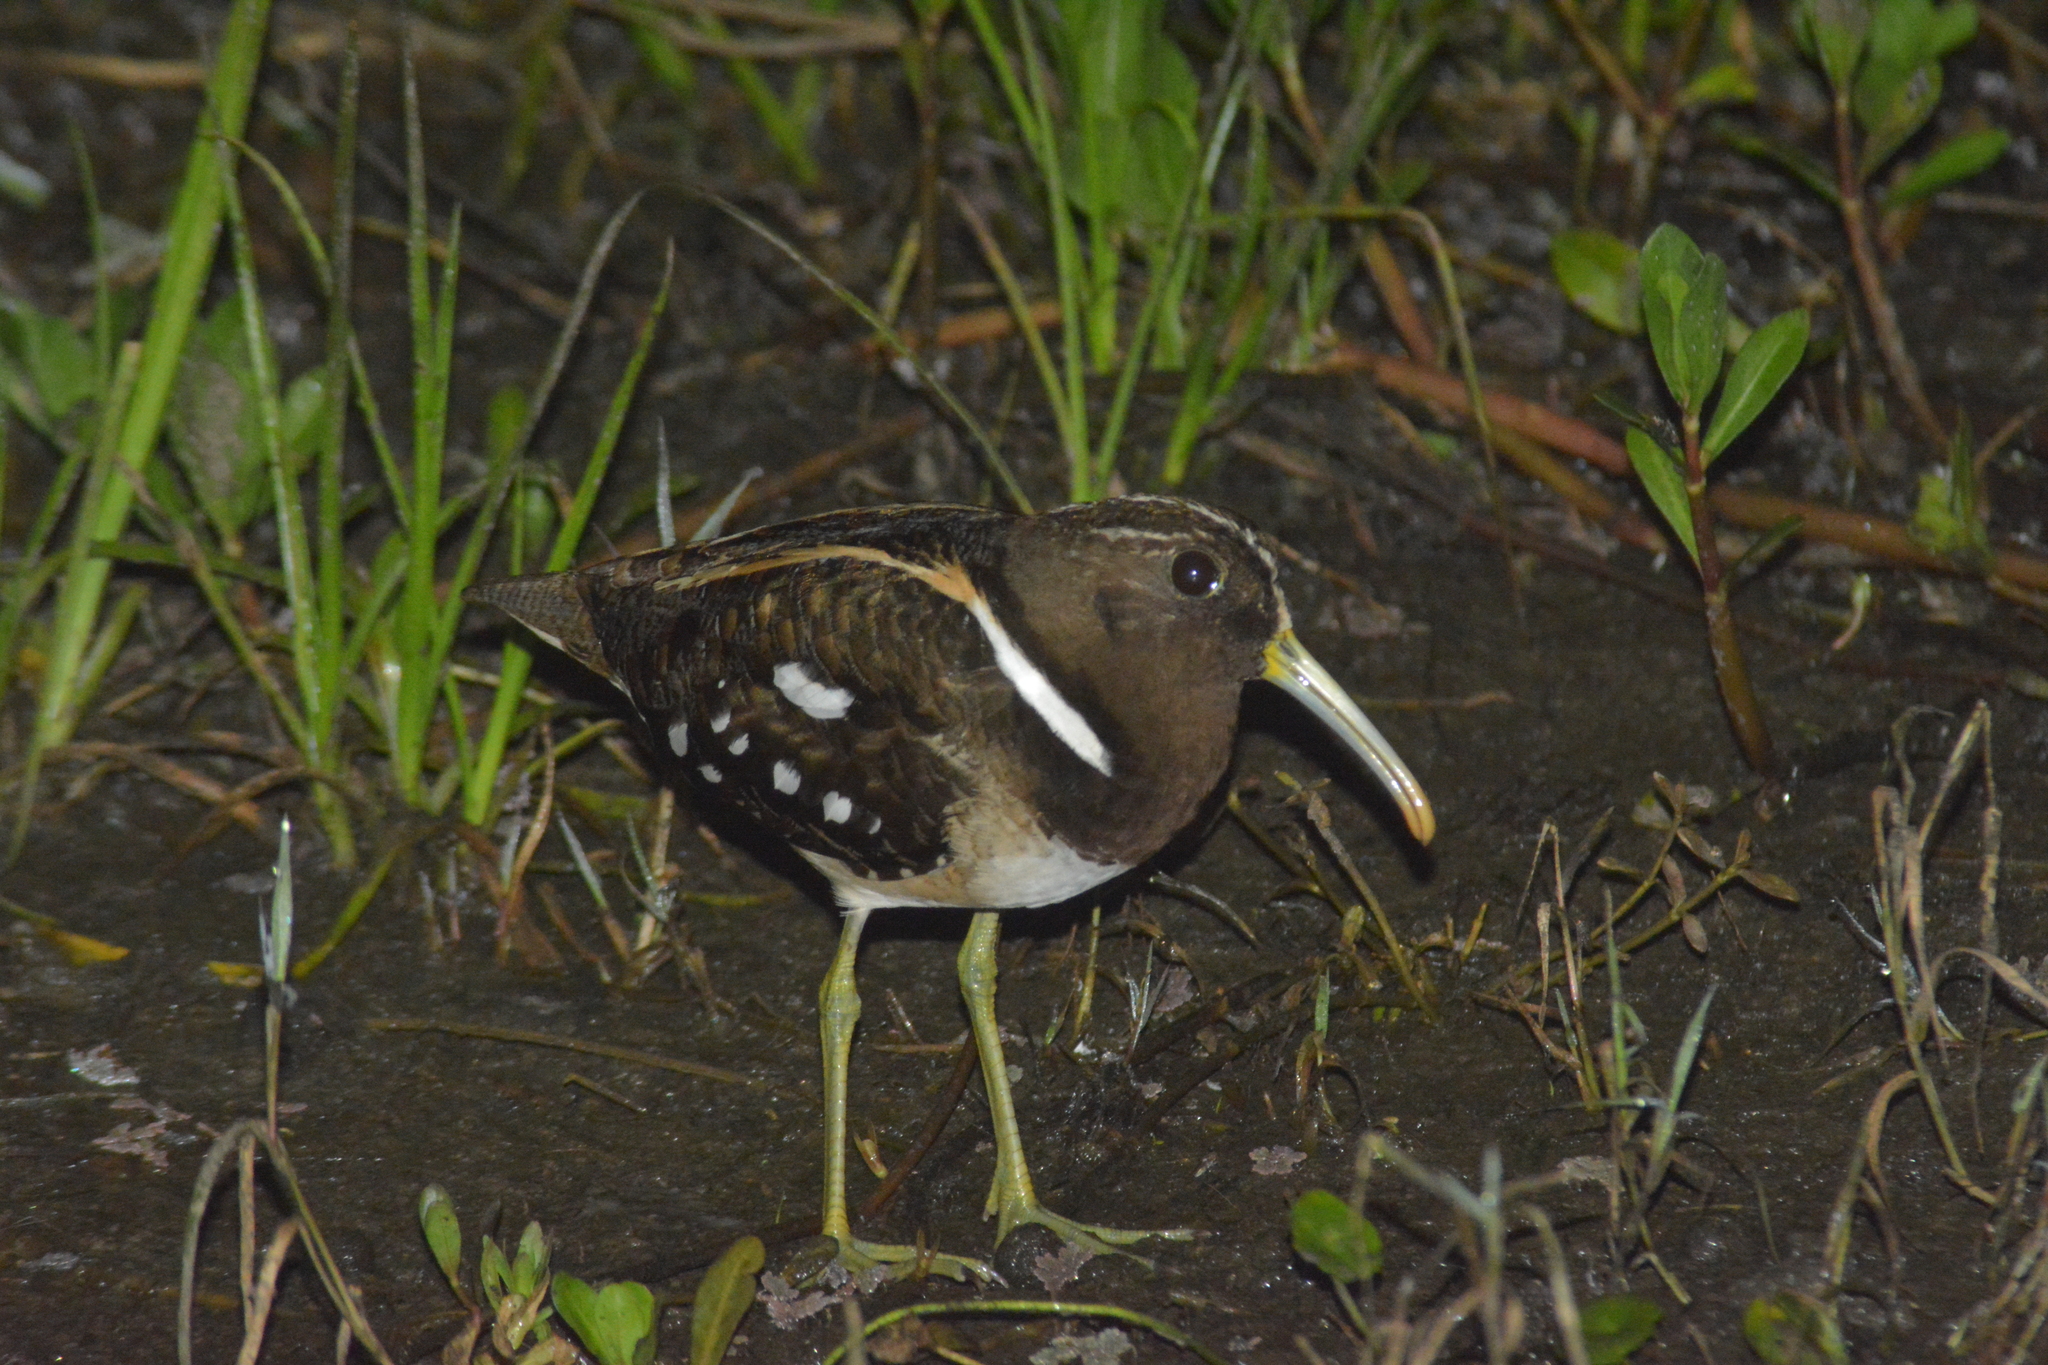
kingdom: Animalia
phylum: Chordata
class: Aves
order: Charadriiformes
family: Rostratulidae
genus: Nycticryphes
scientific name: Nycticryphes semicollaris
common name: South american painted-snipe
